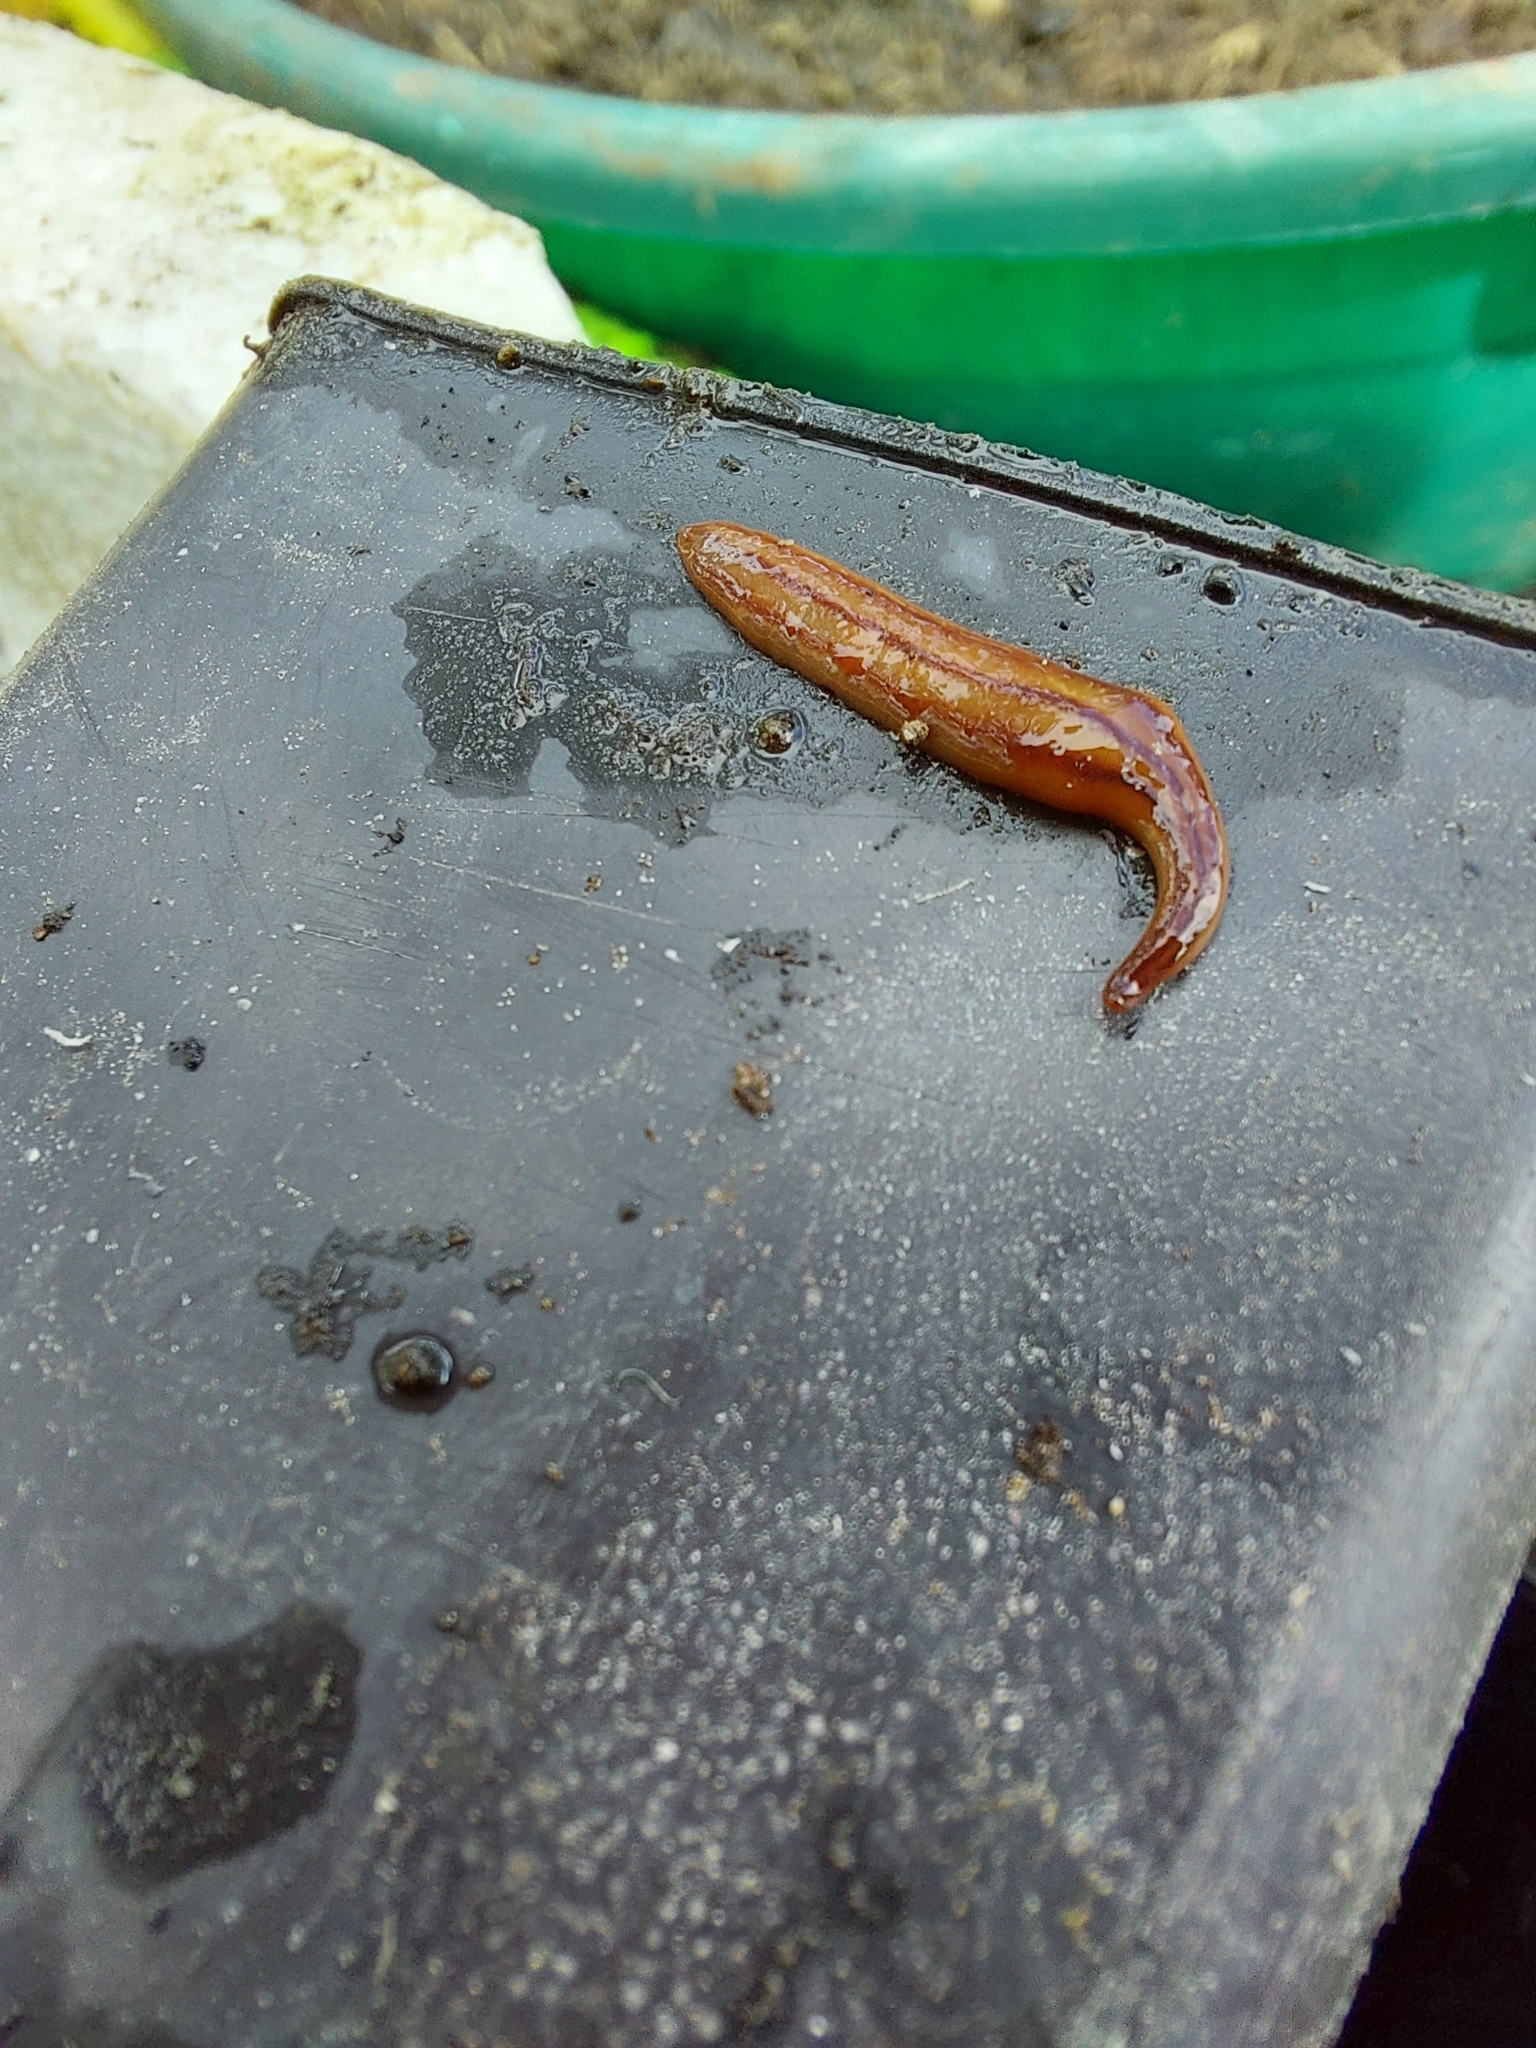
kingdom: Animalia
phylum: Platyhelminthes
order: Tricladida
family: Geoplanidae
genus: Anzoplana
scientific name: Anzoplana trilineata
